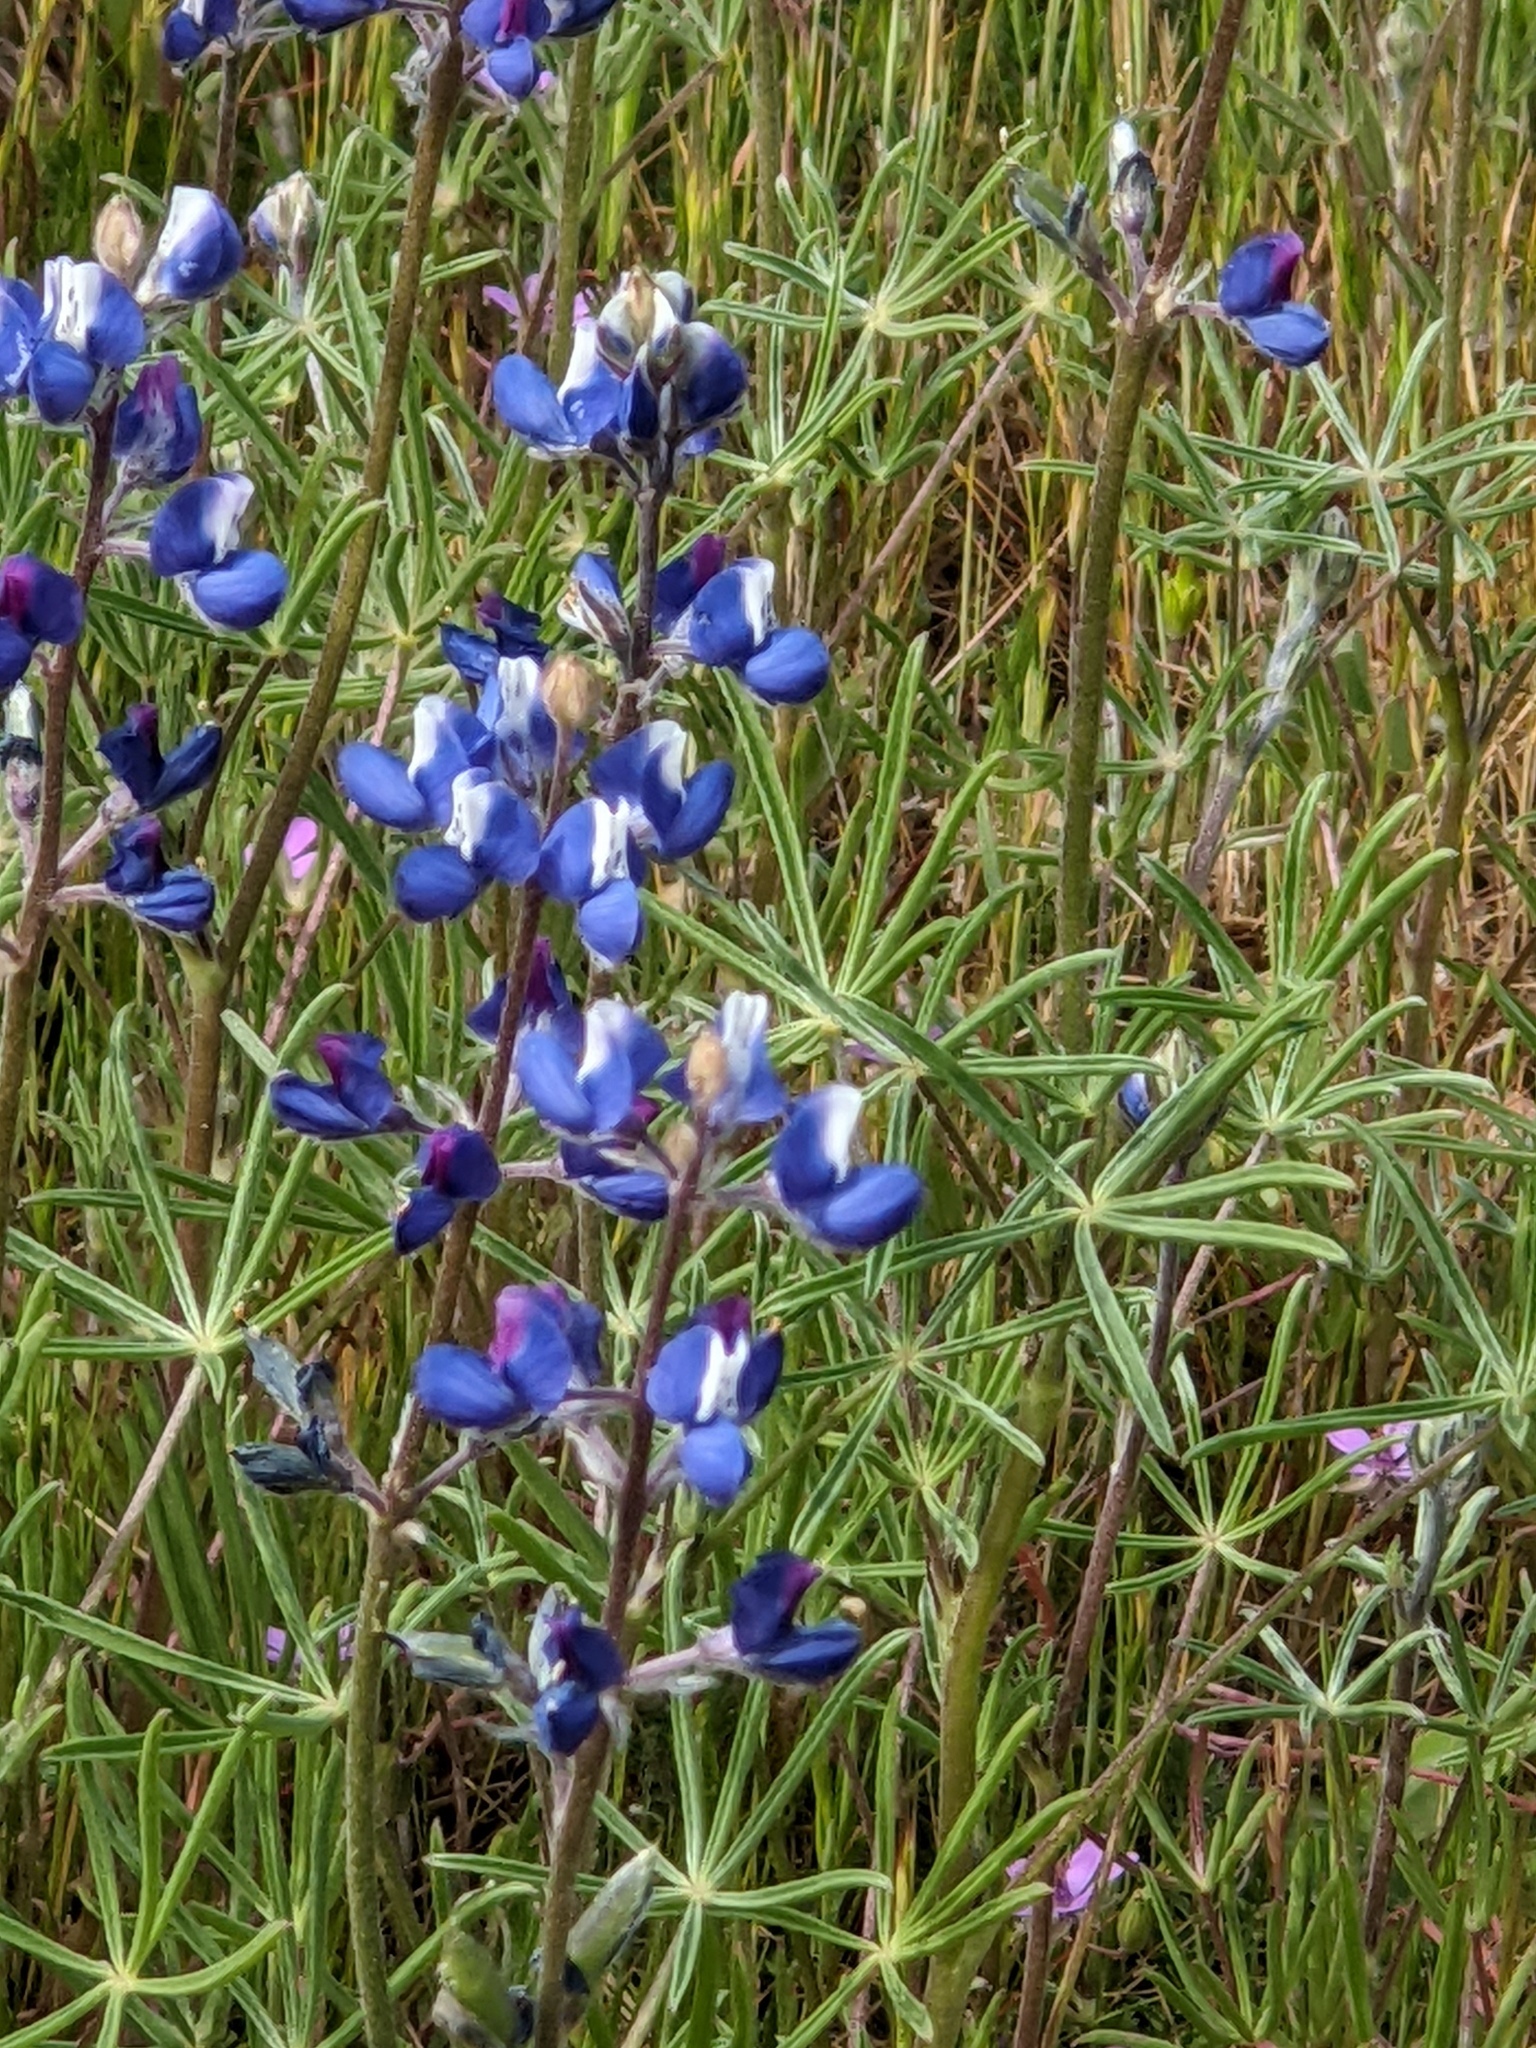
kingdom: Plantae
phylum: Tracheophyta
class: Magnoliopsida
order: Fabales
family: Fabaceae
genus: Lupinus
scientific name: Lupinus bicolor
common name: Miniature lupine
